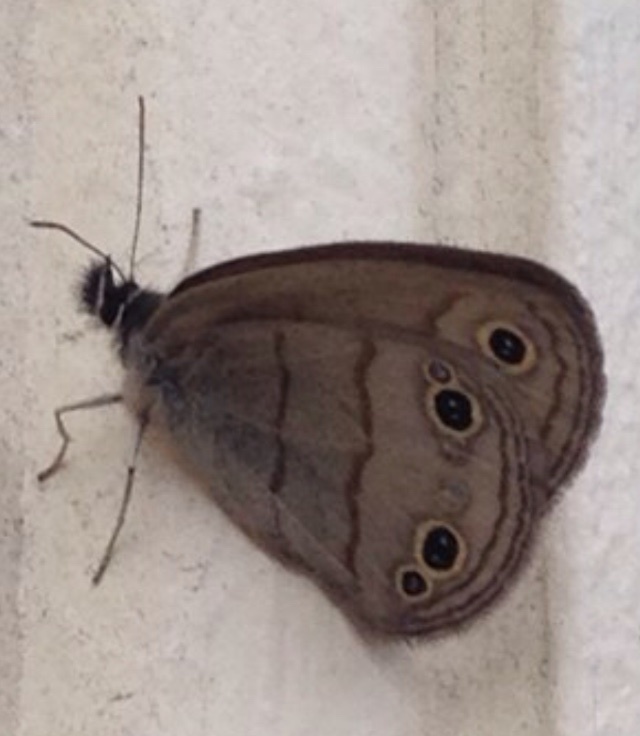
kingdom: Animalia
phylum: Arthropoda
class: Insecta
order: Lepidoptera
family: Nymphalidae
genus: Euptychia
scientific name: Euptychia cymela
